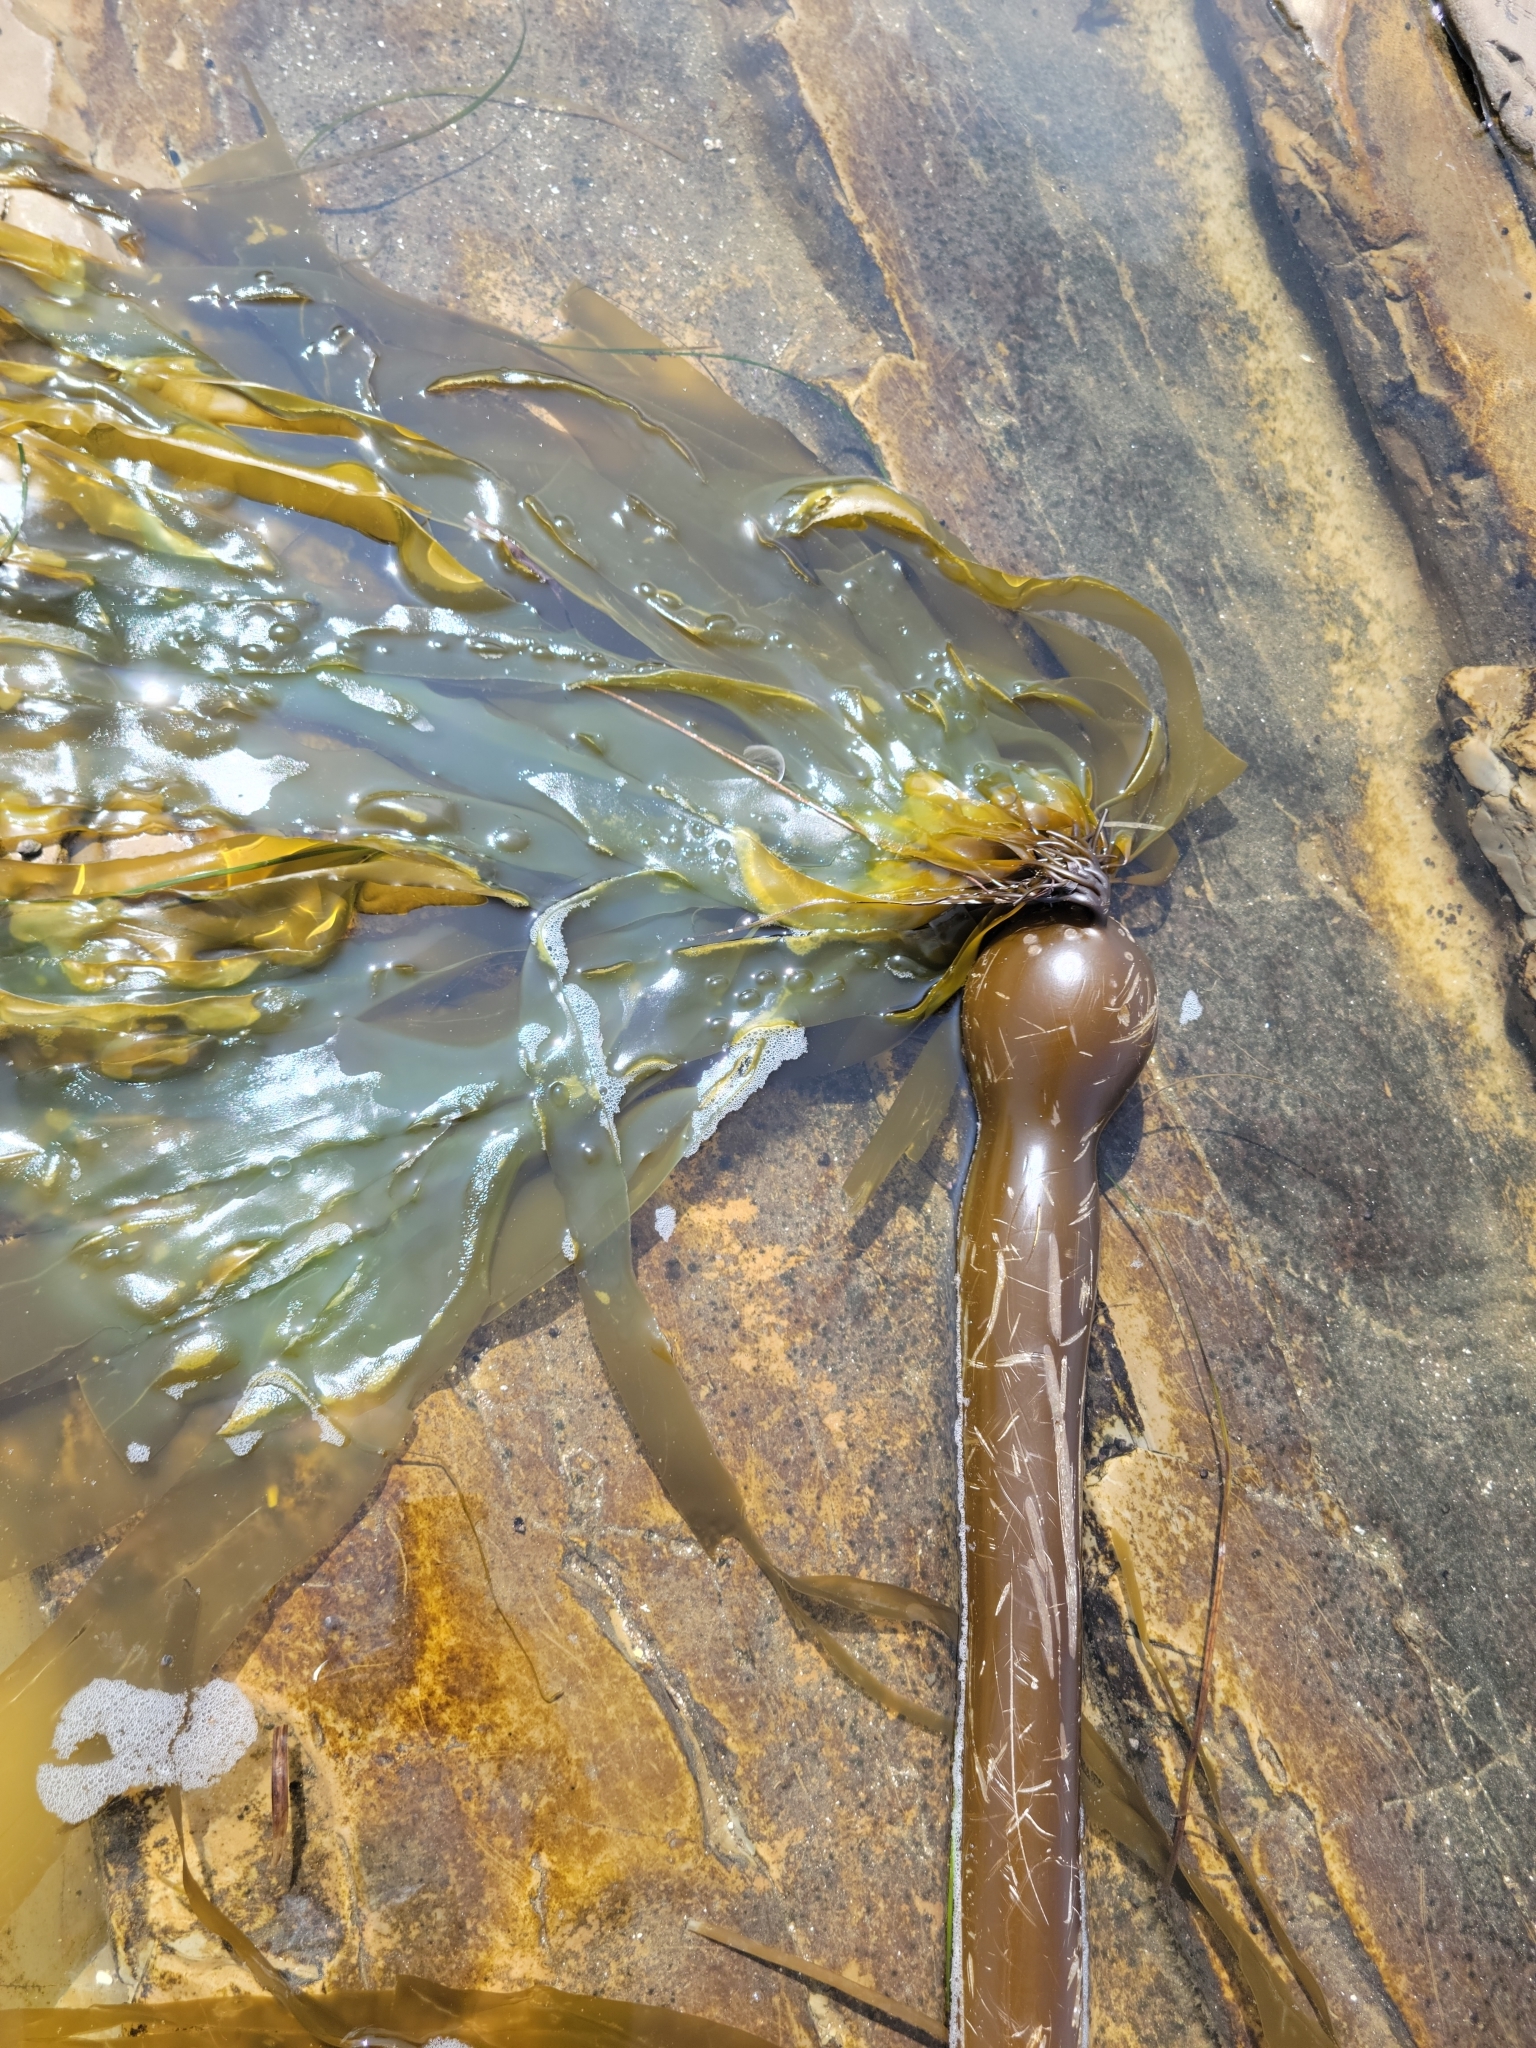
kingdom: Chromista
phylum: Ochrophyta
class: Phaeophyceae
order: Laminariales
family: Laminariaceae
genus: Nereocystis
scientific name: Nereocystis luetkeana
